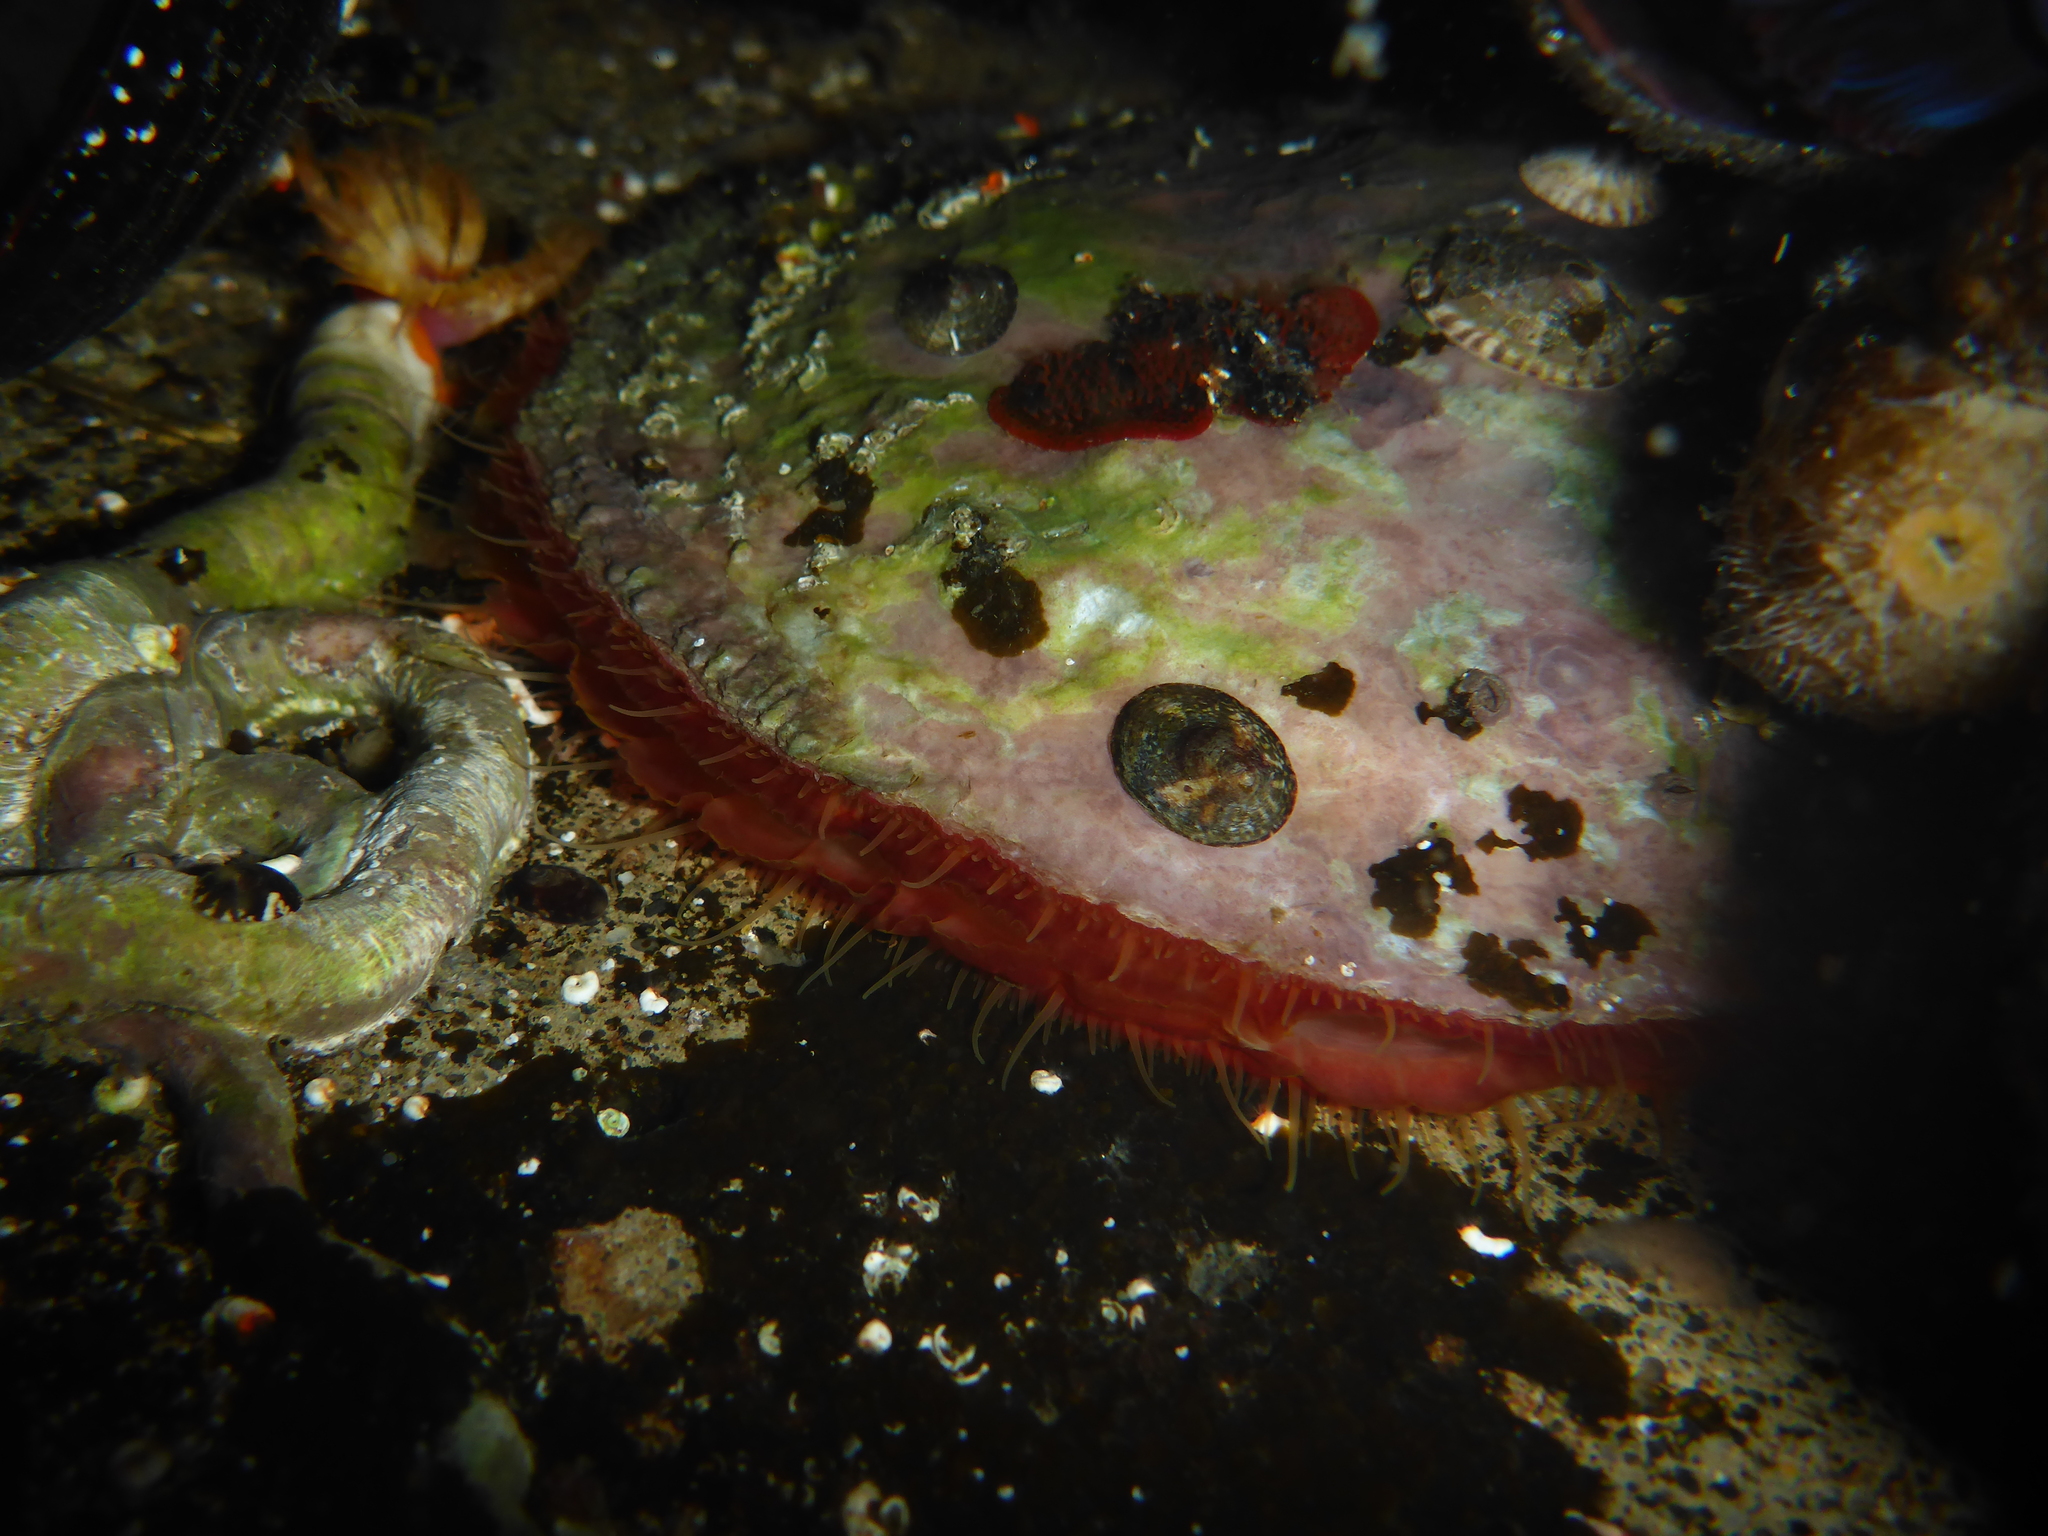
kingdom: Animalia
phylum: Mollusca
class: Bivalvia
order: Pectinida
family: Anomiidae
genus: Pododesmus
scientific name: Pododesmus macrochisma
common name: Alaska jingle
